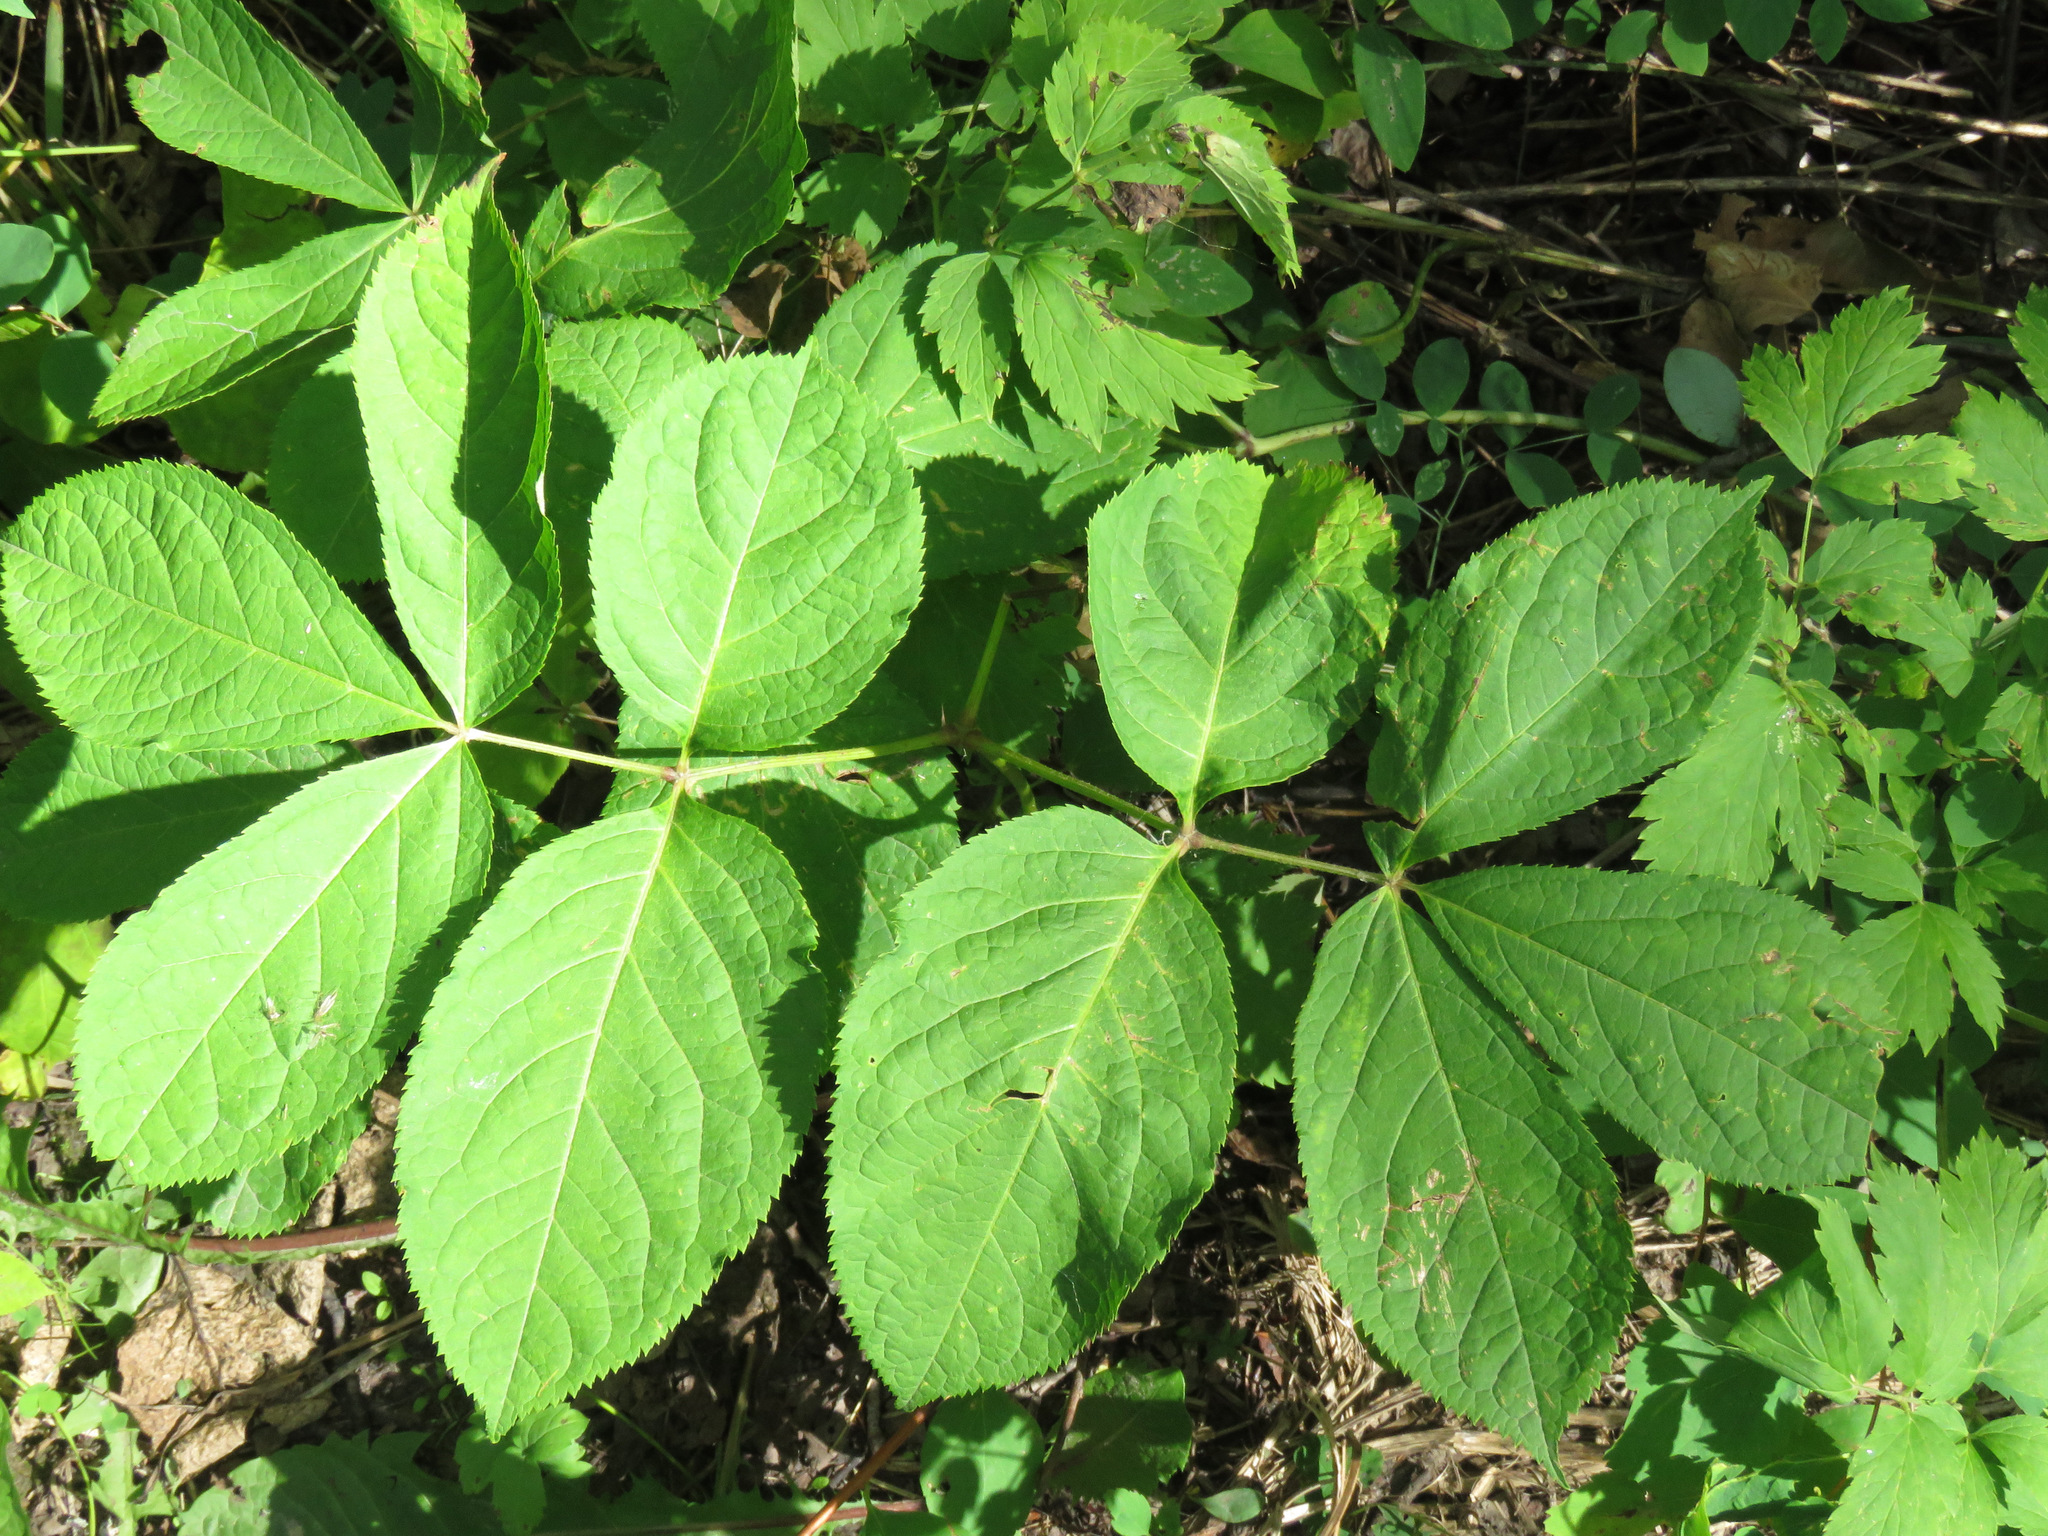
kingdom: Plantae
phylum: Tracheophyta
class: Magnoliopsida
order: Apiales
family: Araliaceae
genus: Aralia
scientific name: Aralia nudicaulis
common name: Wild sarsaparilla
